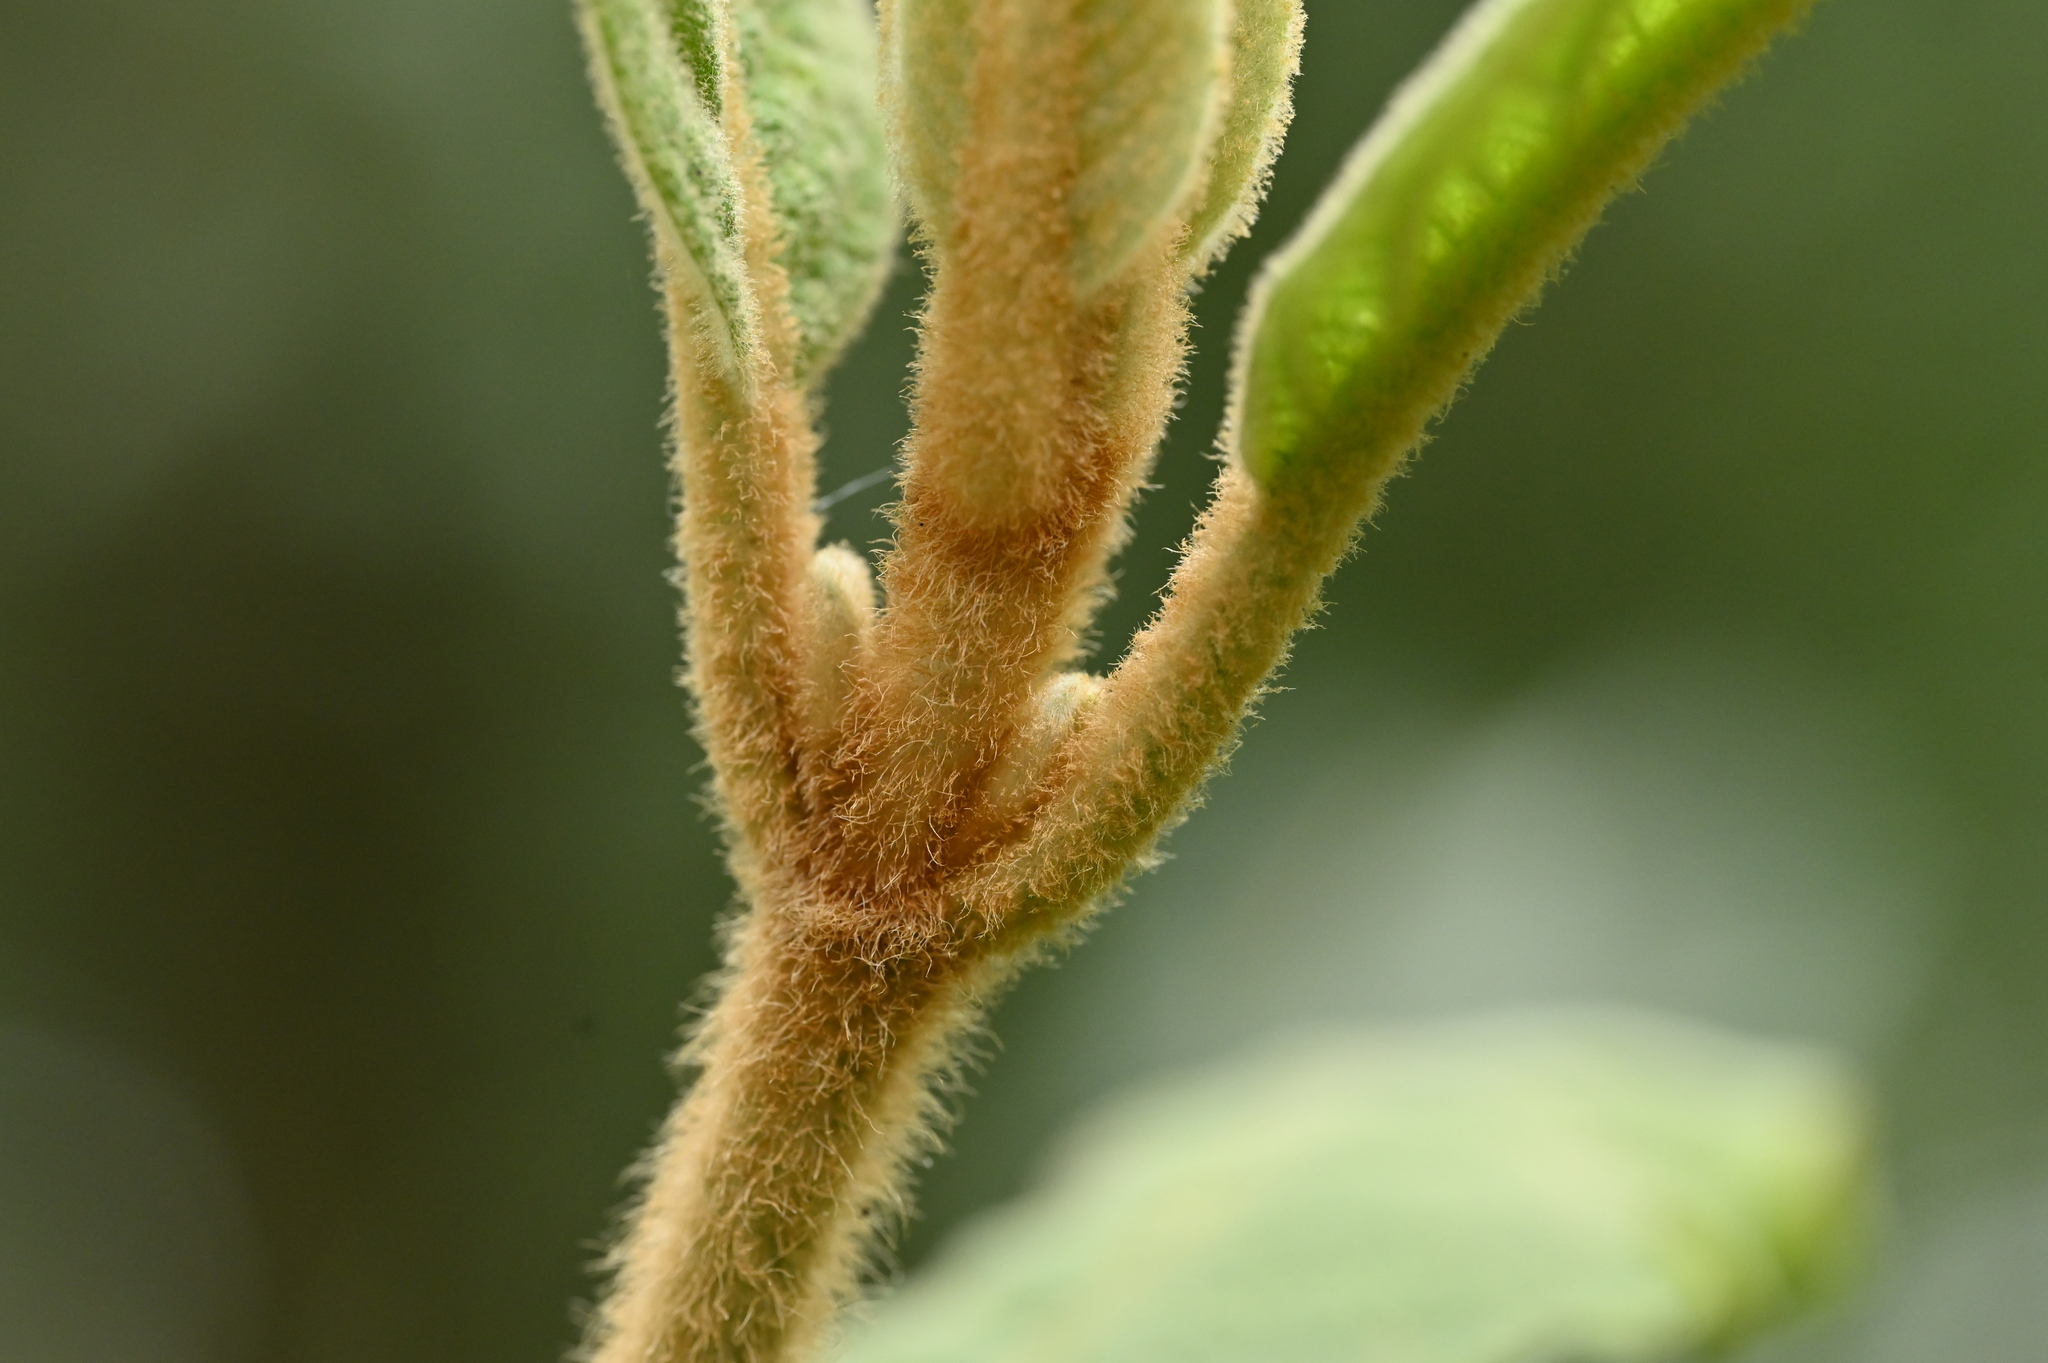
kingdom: Plantae
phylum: Tracheophyta
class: Magnoliopsida
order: Lamiales
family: Lamiaceae
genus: Callicarpa
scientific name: Callicarpa kochiana
